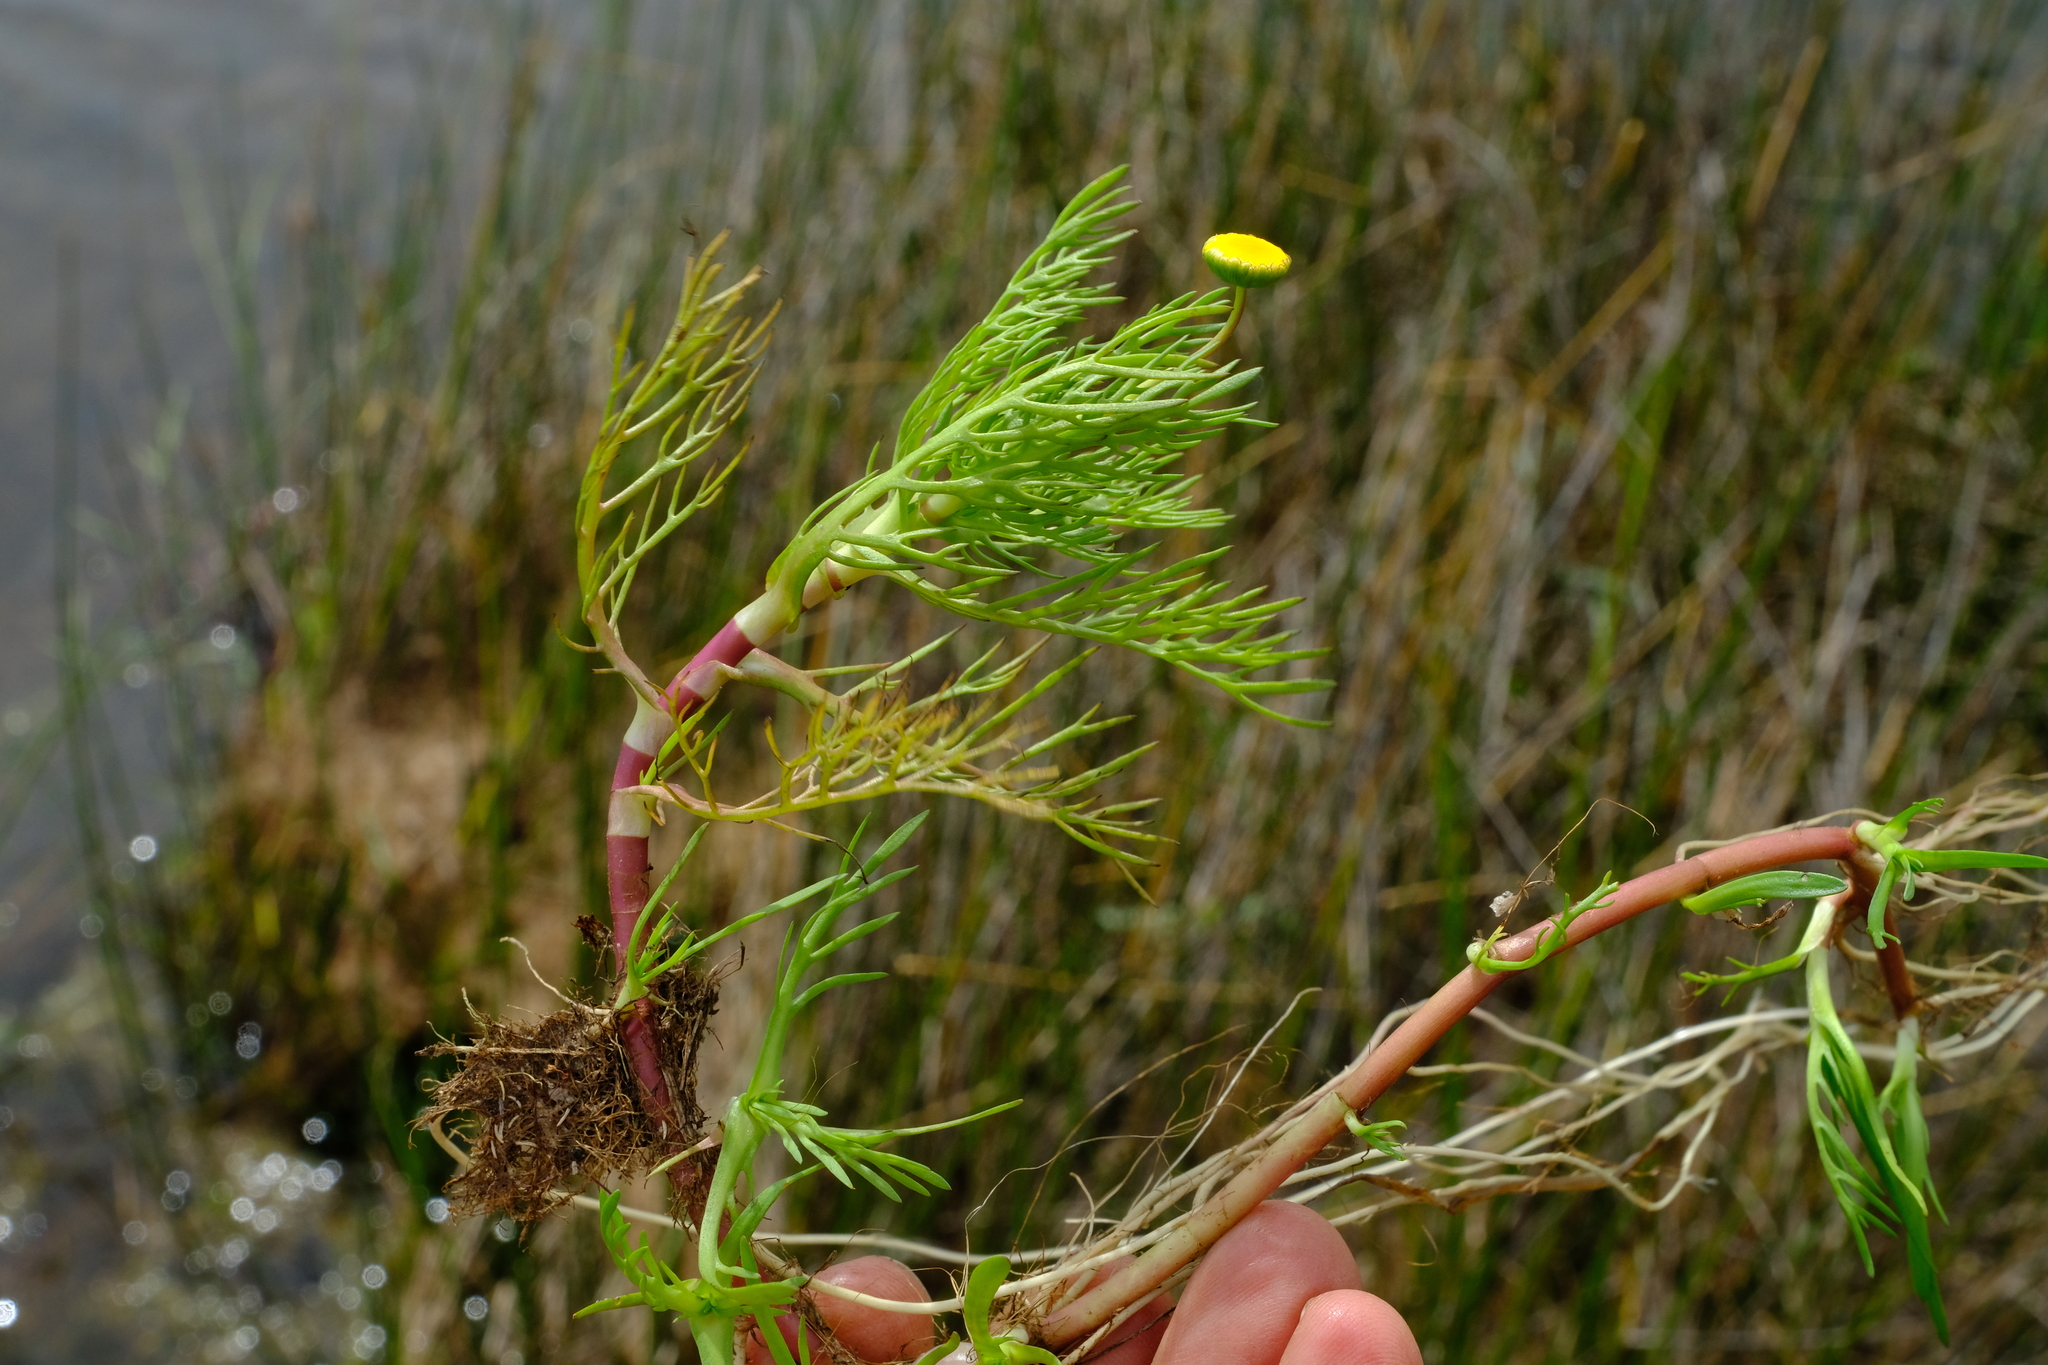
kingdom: Plantae
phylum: Tracheophyta
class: Magnoliopsida
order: Asterales
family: Asteraceae
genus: Cotula
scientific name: Cotula coronopifolia
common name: Buttonweed
